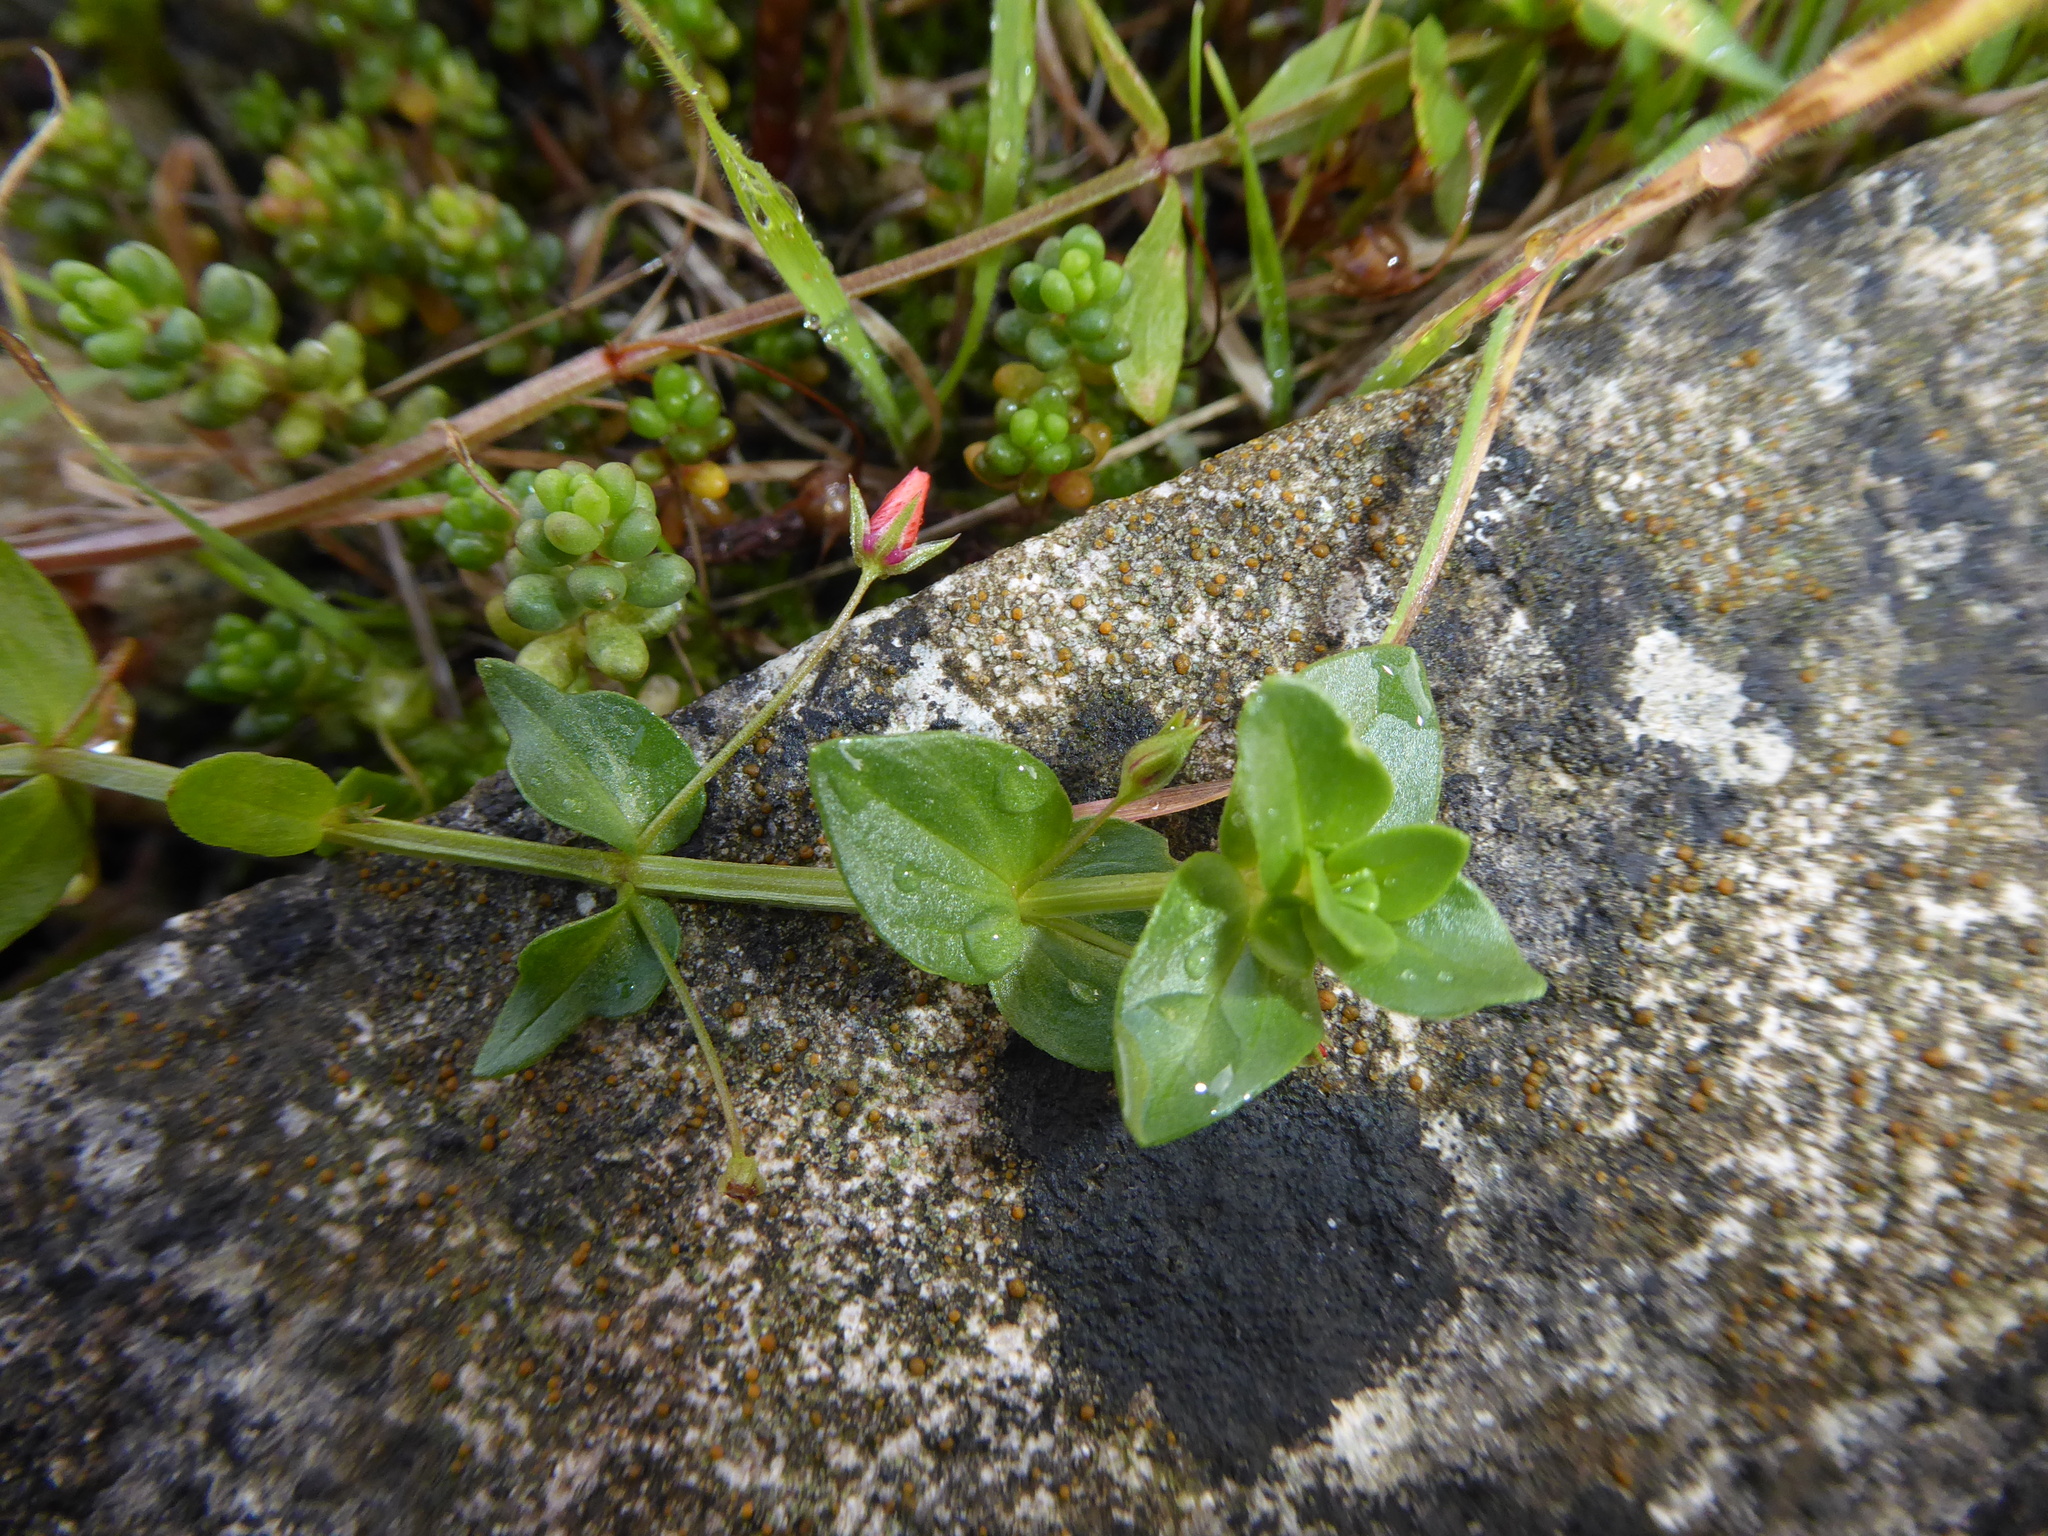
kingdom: Plantae
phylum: Tracheophyta
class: Magnoliopsida
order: Ericales
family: Primulaceae
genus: Lysimachia
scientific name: Lysimachia arvensis
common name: Scarlet pimpernel
